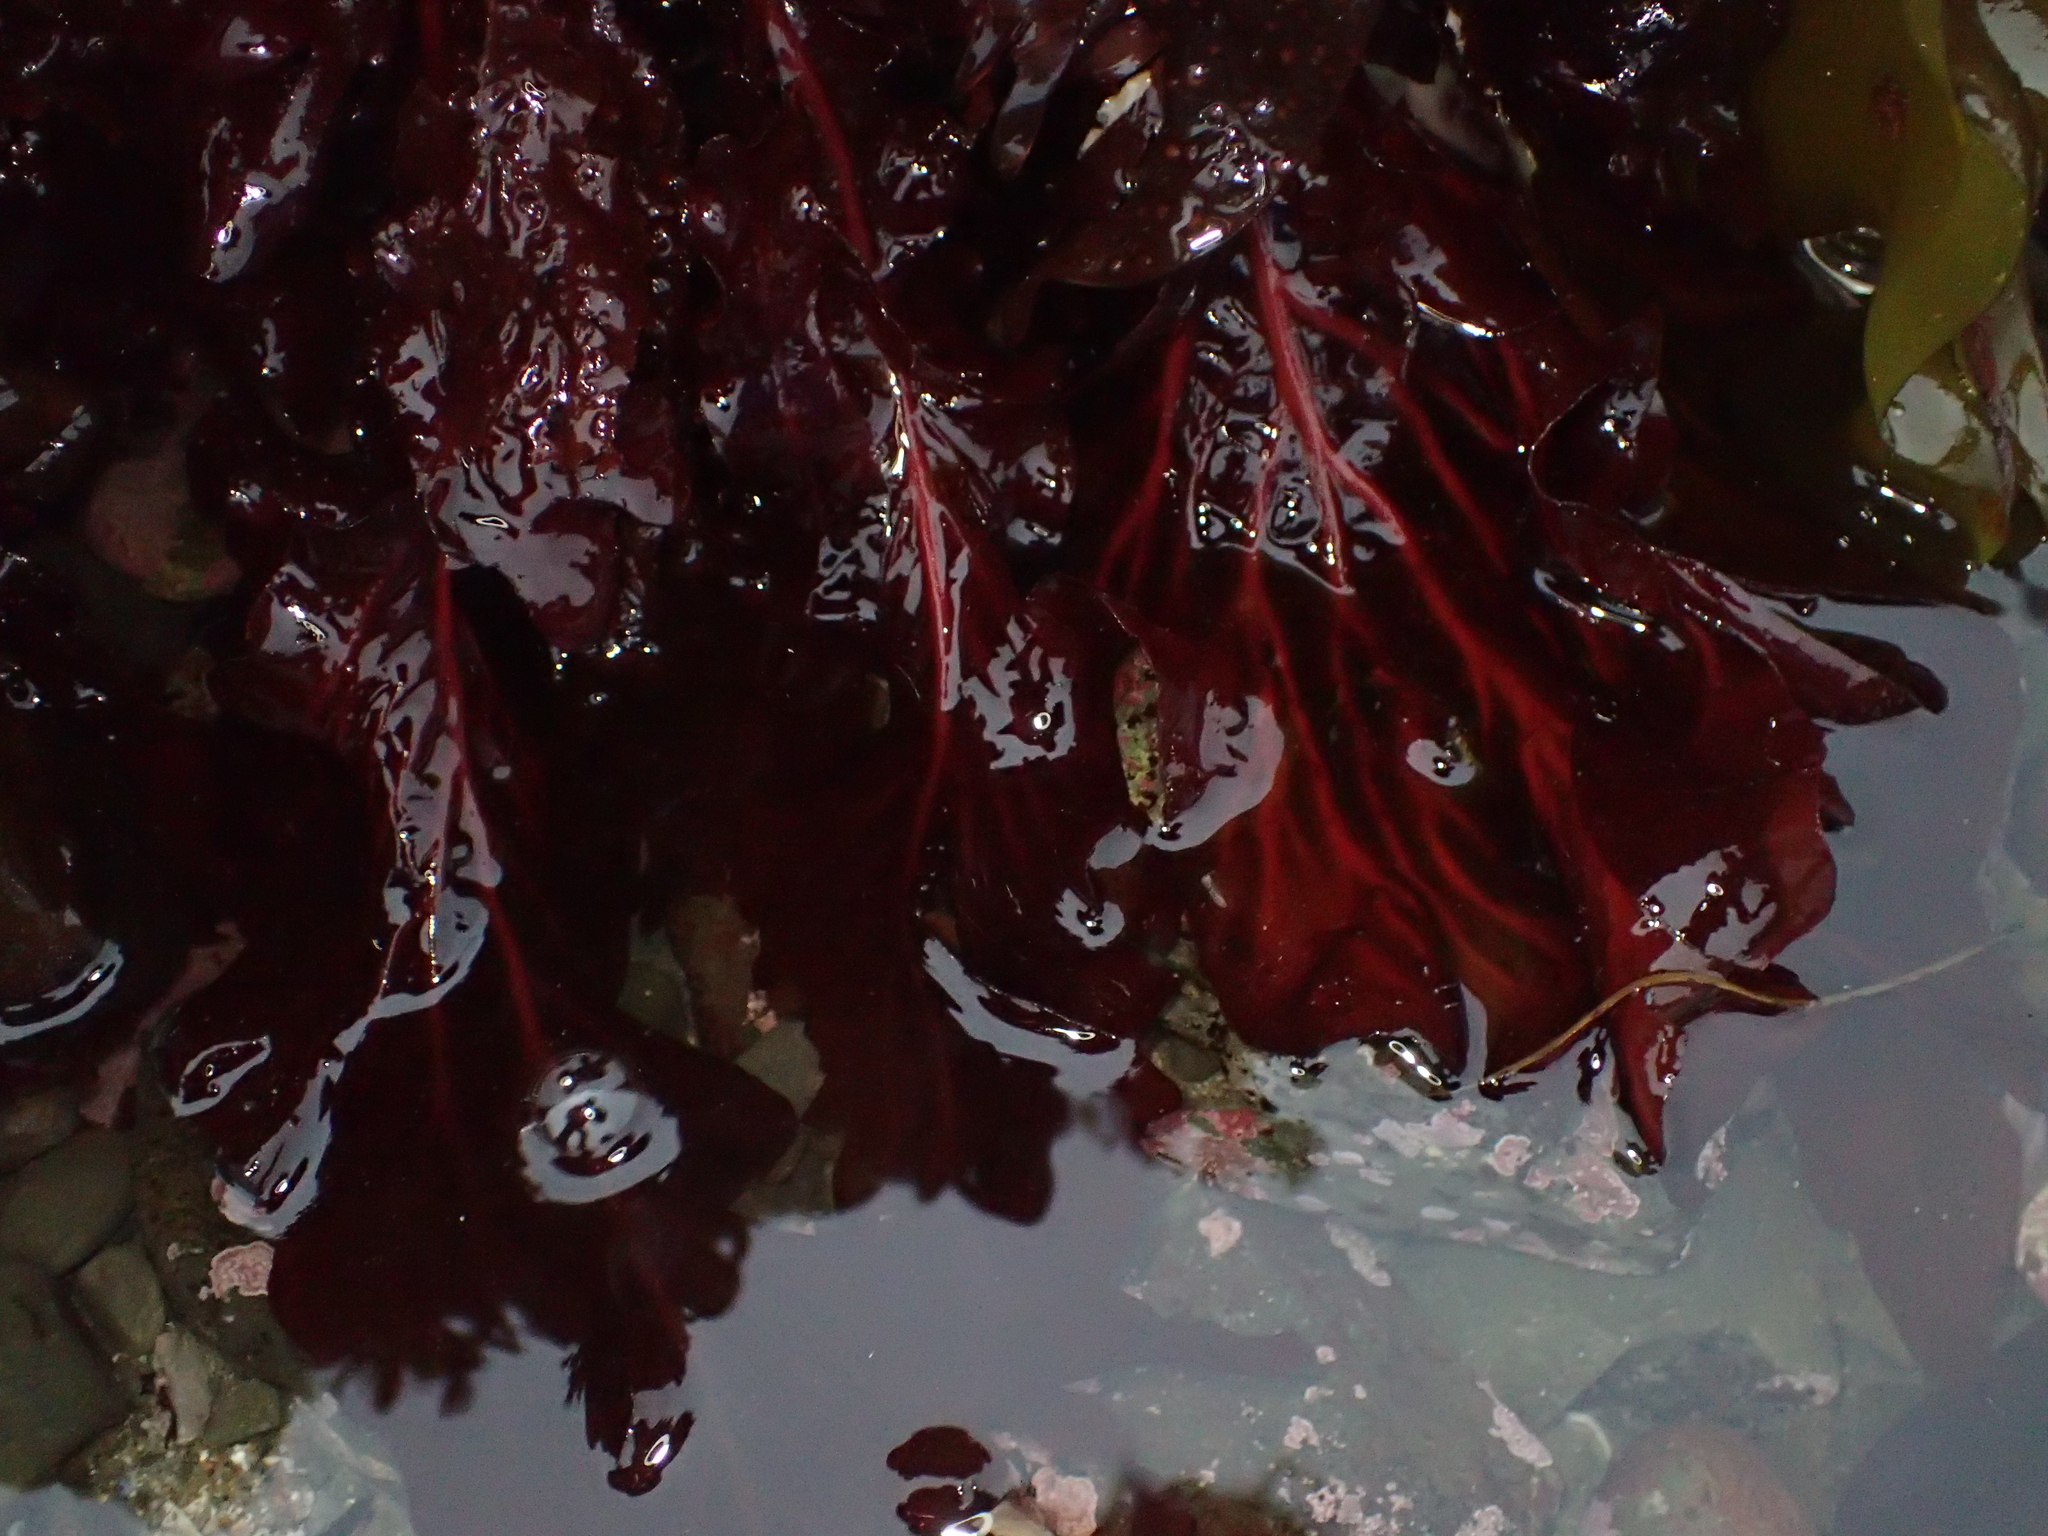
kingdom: Plantae
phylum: Rhodophyta
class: Florideophyceae
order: Gigartinales
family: Kallymeniaceae
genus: Erythrophyllum
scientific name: Erythrophyllum delesserioides
